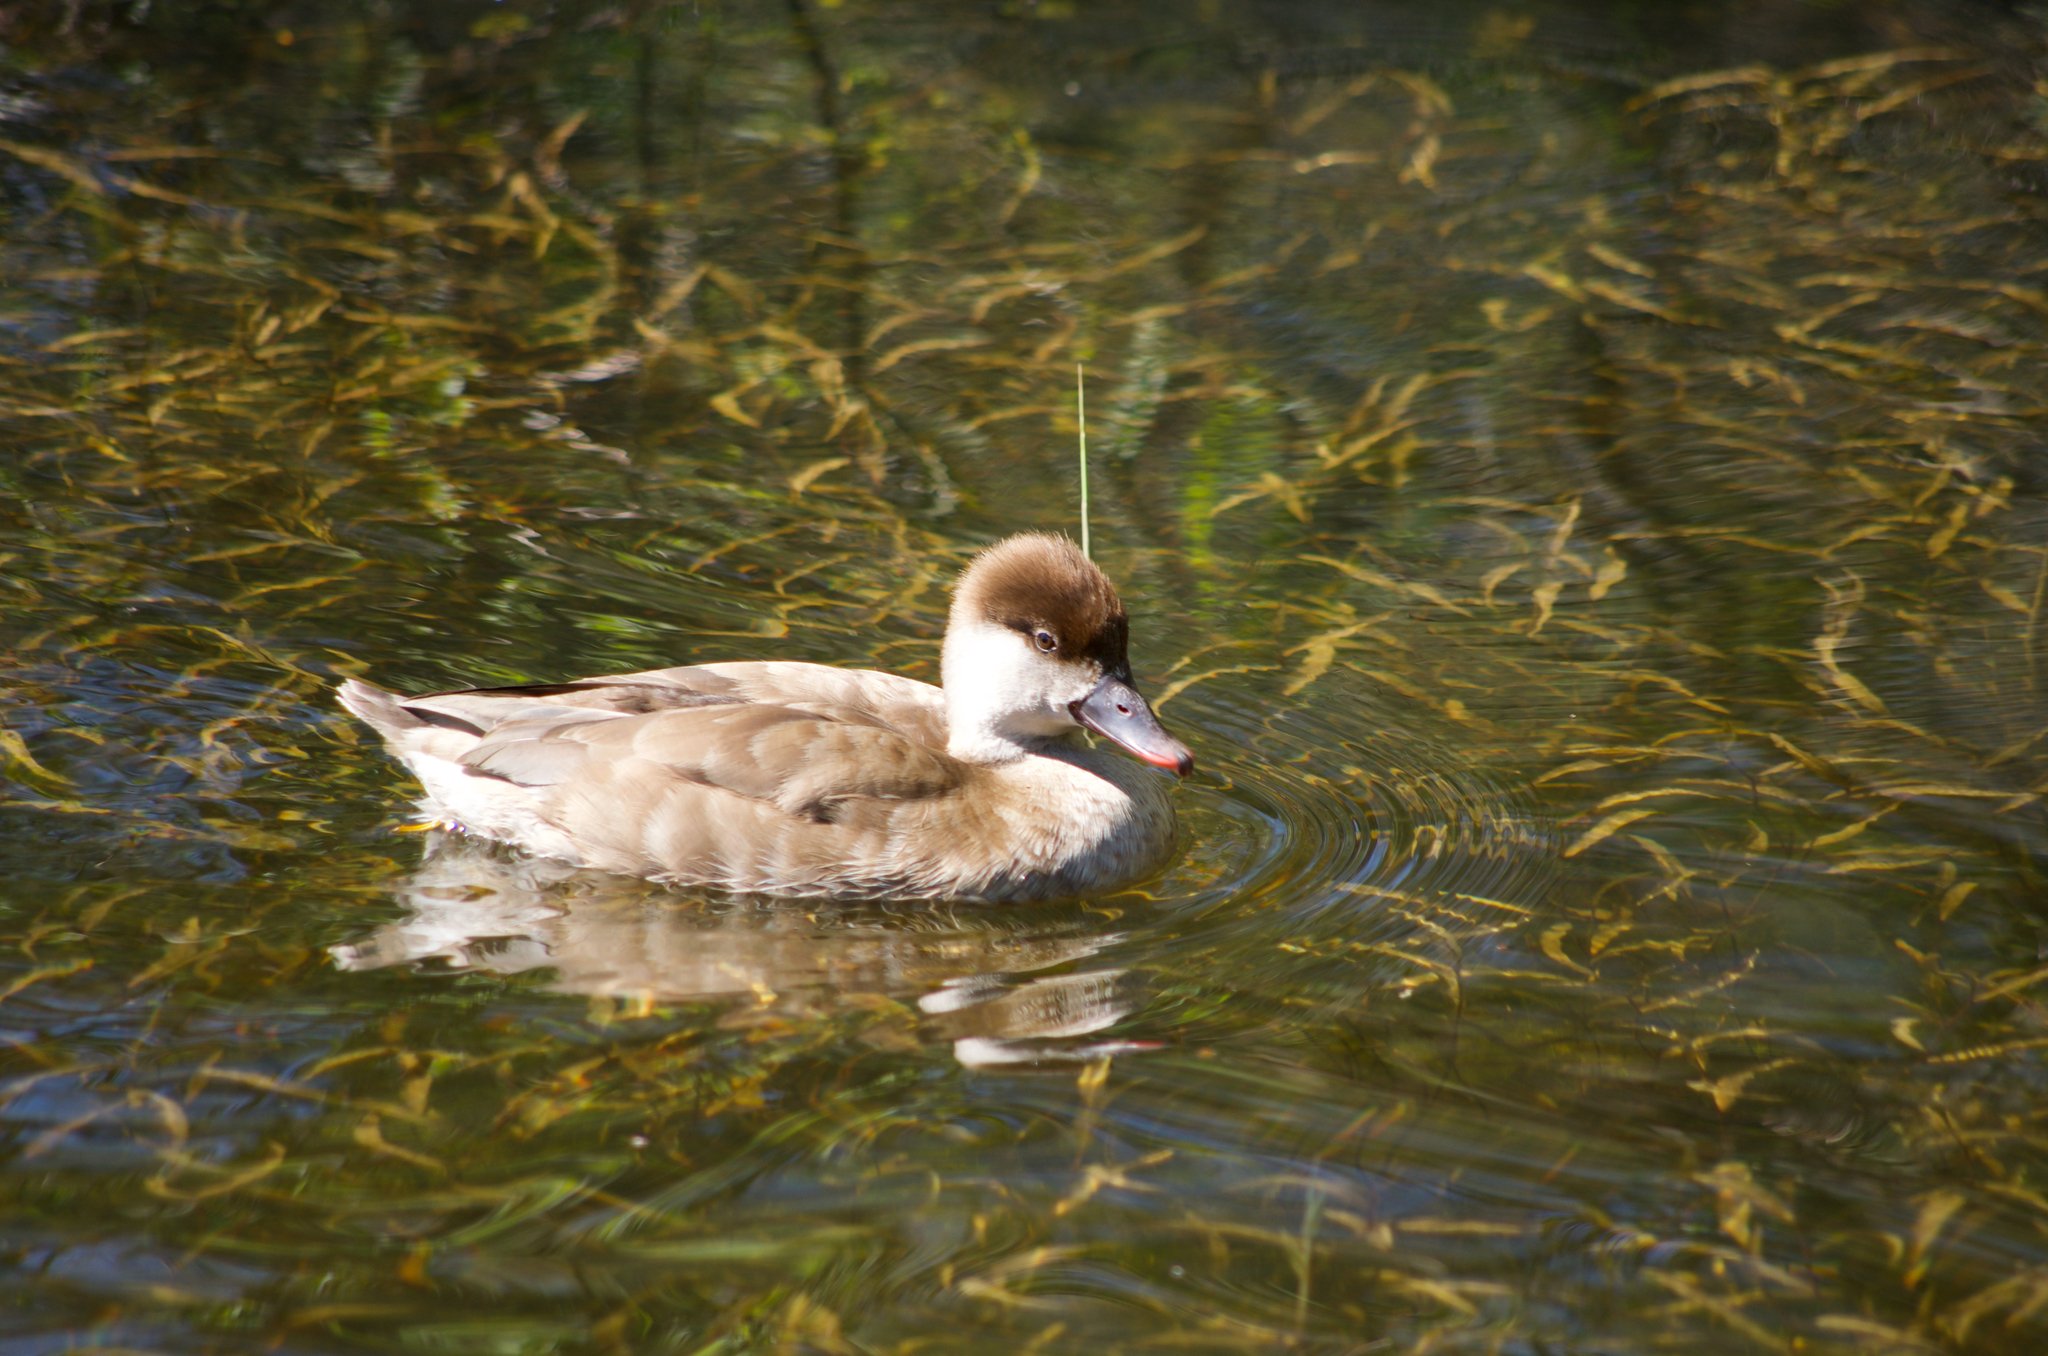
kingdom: Animalia
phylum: Chordata
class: Aves
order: Anseriformes
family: Anatidae
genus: Netta
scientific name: Netta rufina
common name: Red-crested pochard
